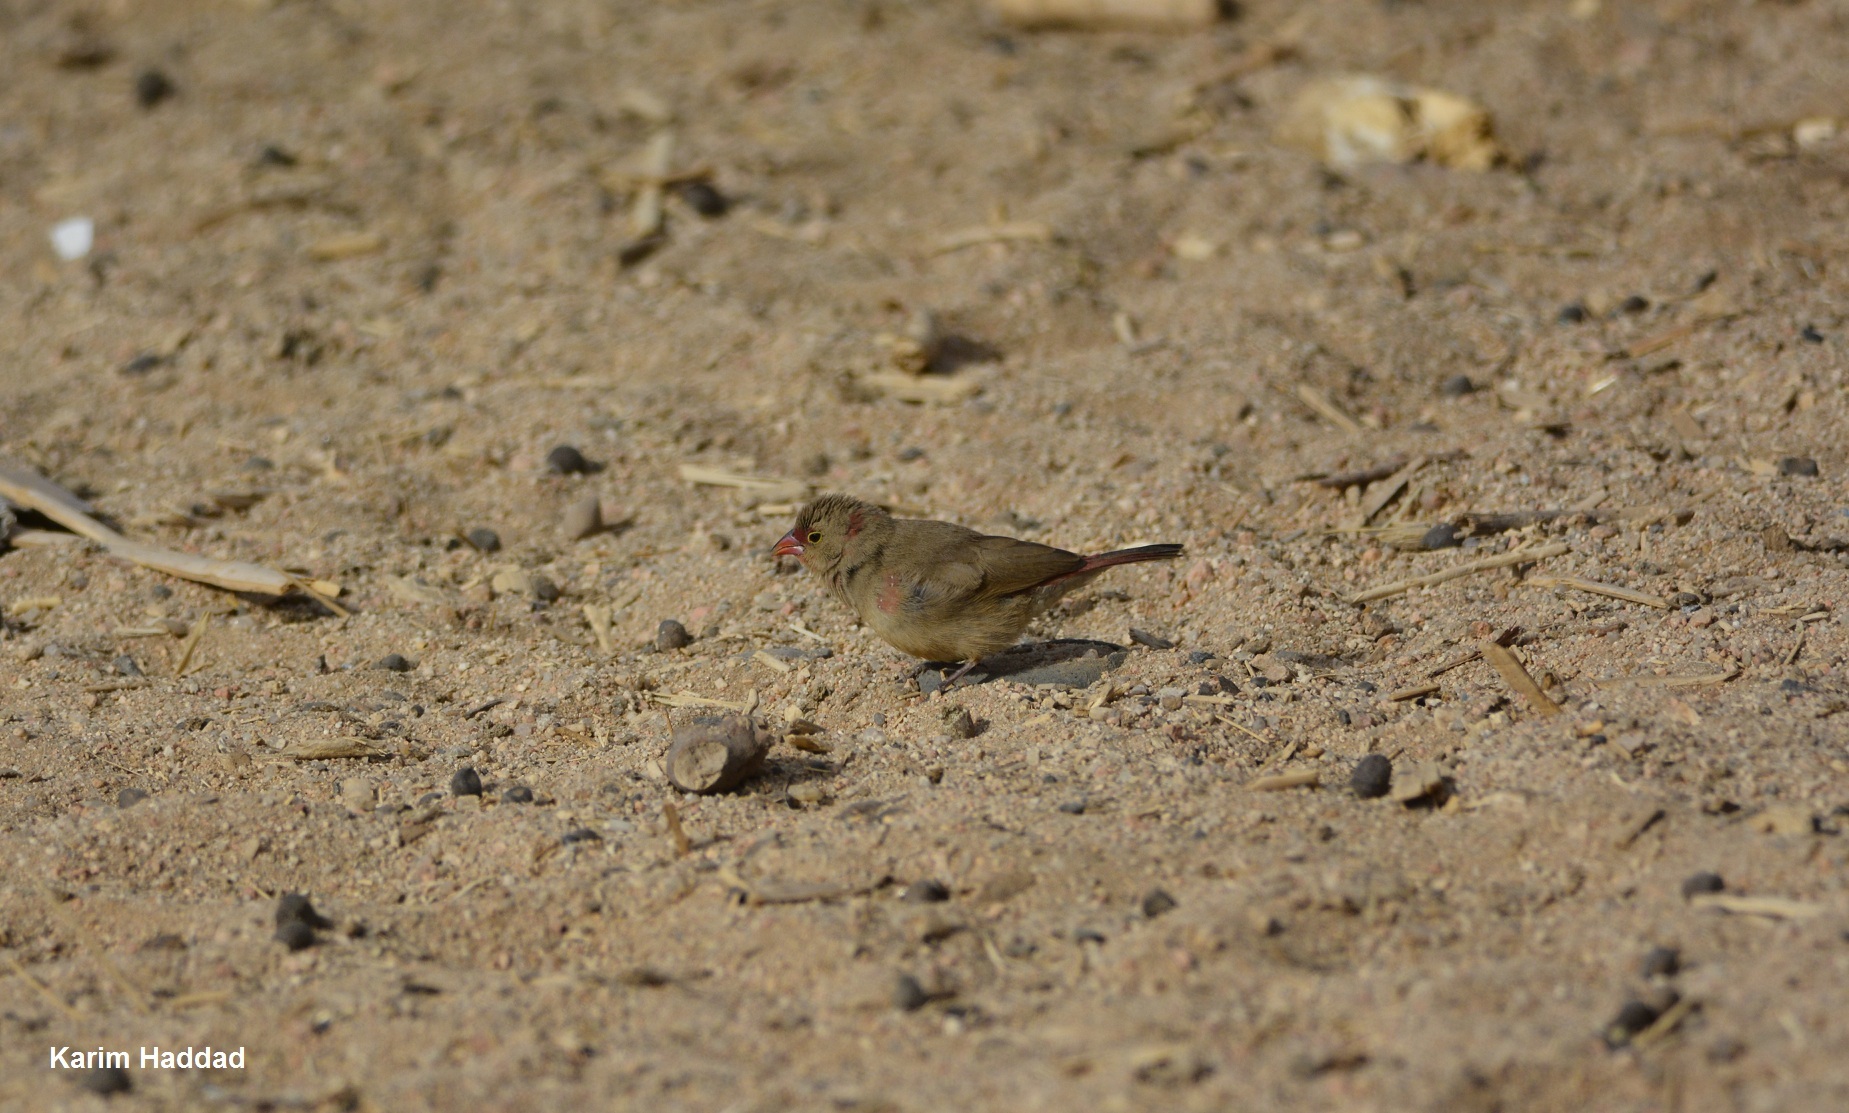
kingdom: Animalia
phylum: Chordata
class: Aves
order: Passeriformes
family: Estrildidae
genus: Lagonosticta
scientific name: Lagonosticta senegala
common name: Red-billed firefinch
